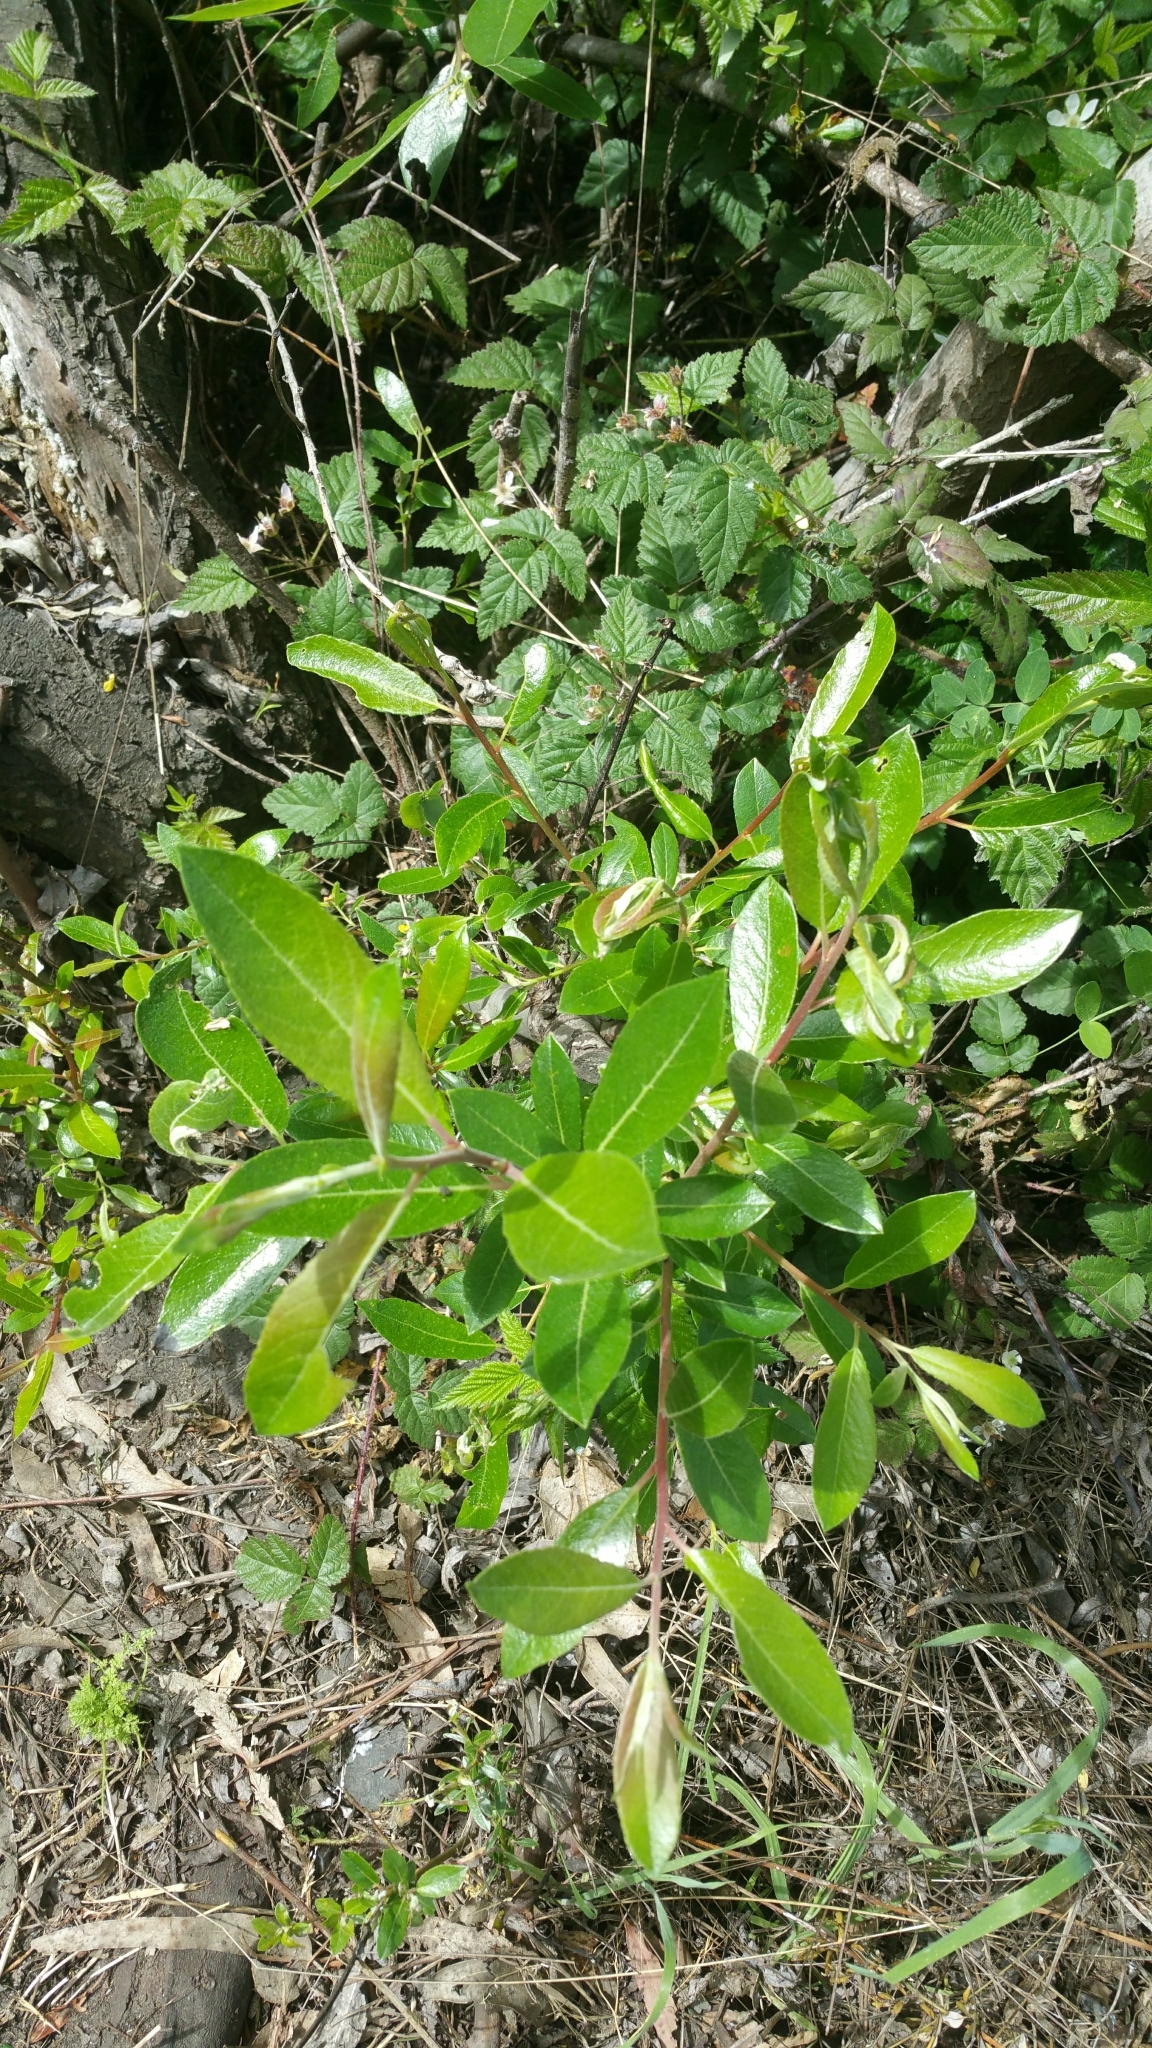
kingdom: Plantae
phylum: Tracheophyta
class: Magnoliopsida
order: Malpighiales
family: Salicaceae
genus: Salix
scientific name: Salix lasiolepis
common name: Arroyo willow
